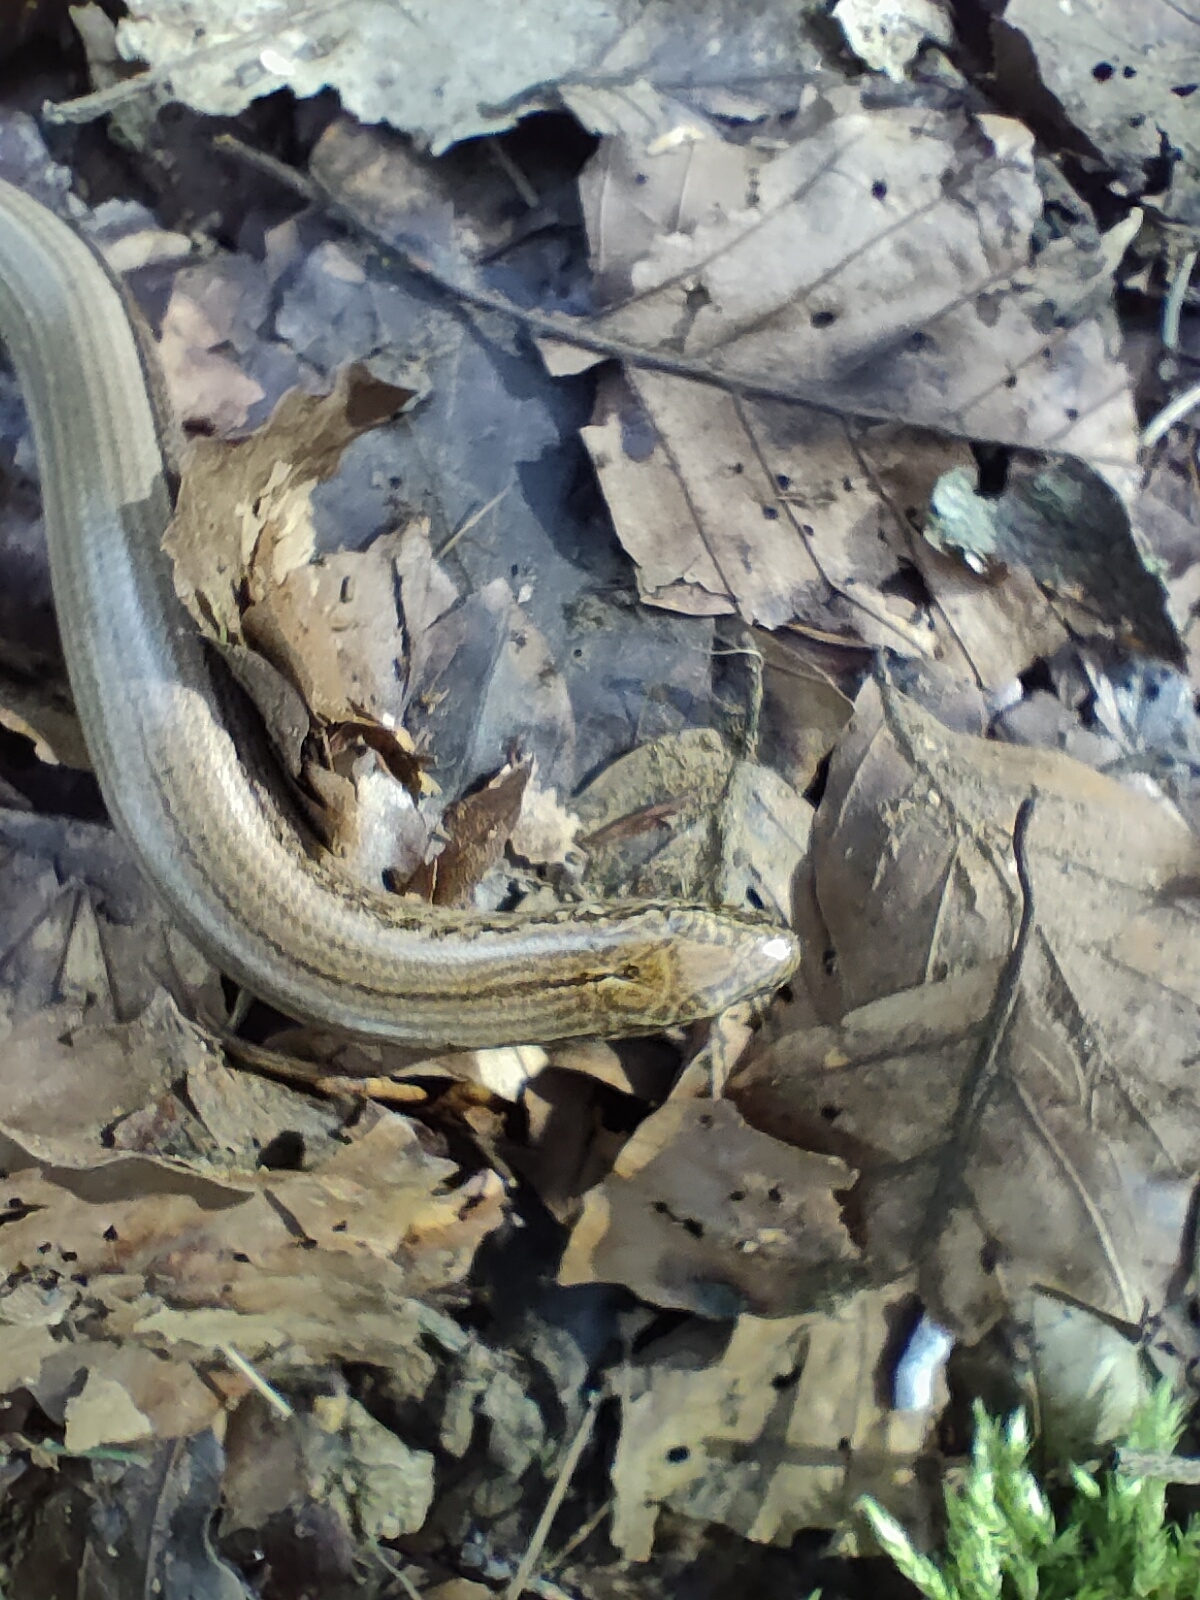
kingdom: Animalia
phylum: Chordata
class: Squamata
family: Anguidae
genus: Anguis
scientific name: Anguis fragilis
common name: Slow worm
